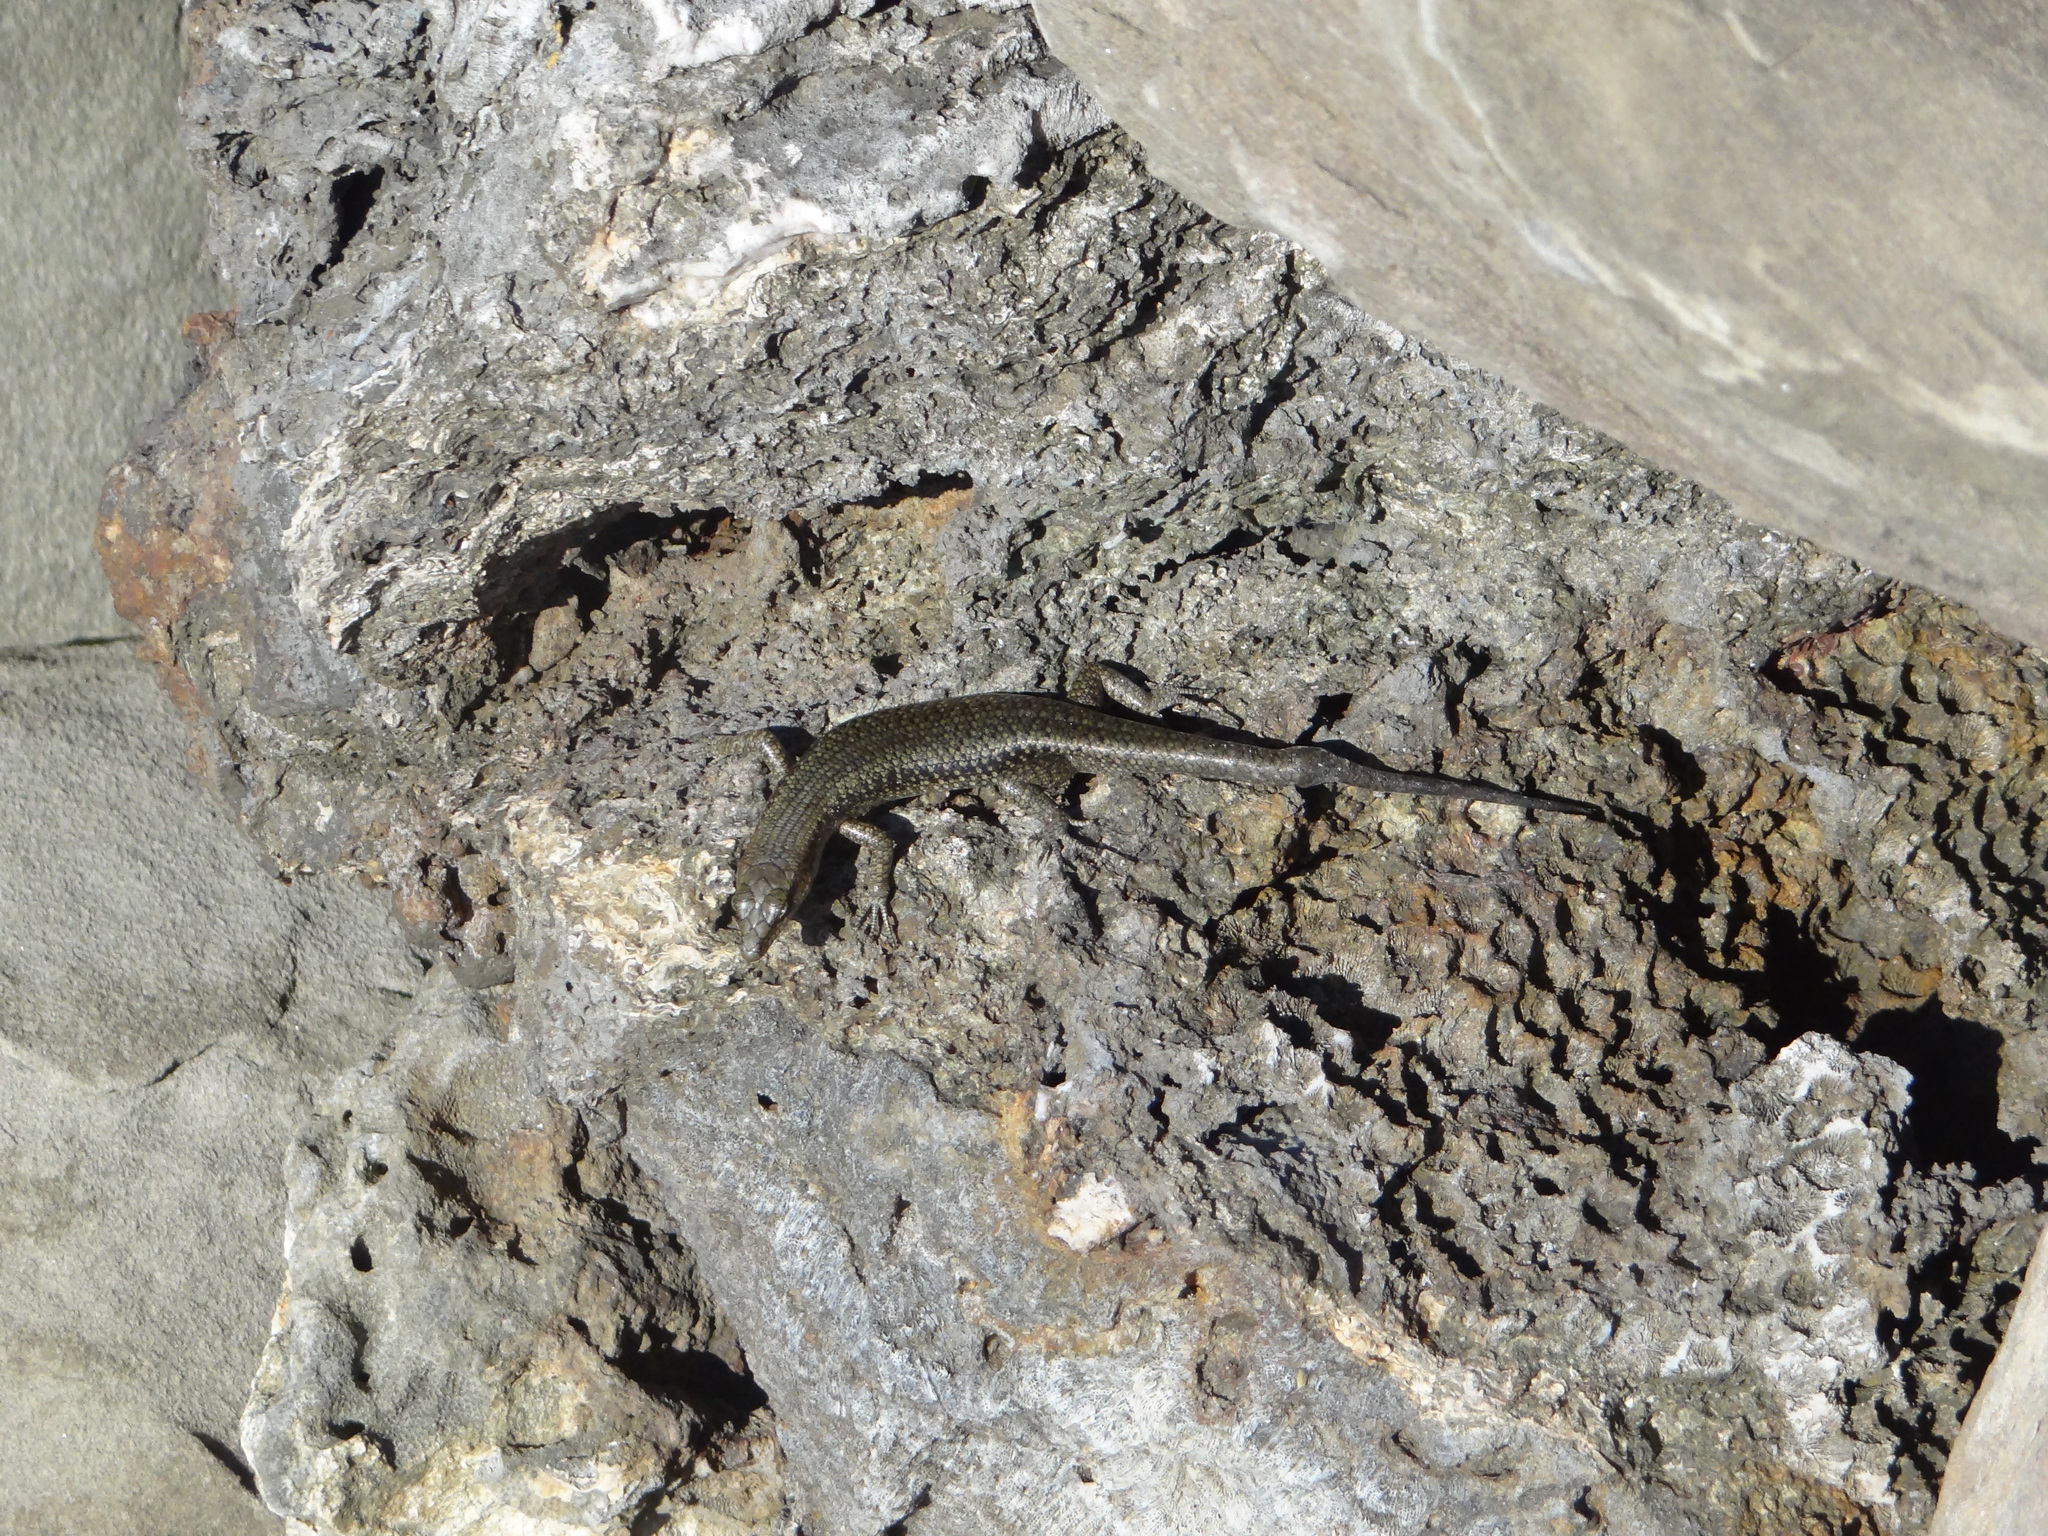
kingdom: Animalia
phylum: Chordata
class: Squamata
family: Scincidae
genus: Emoia
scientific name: Emoia atrocostata
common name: Littoral skink
